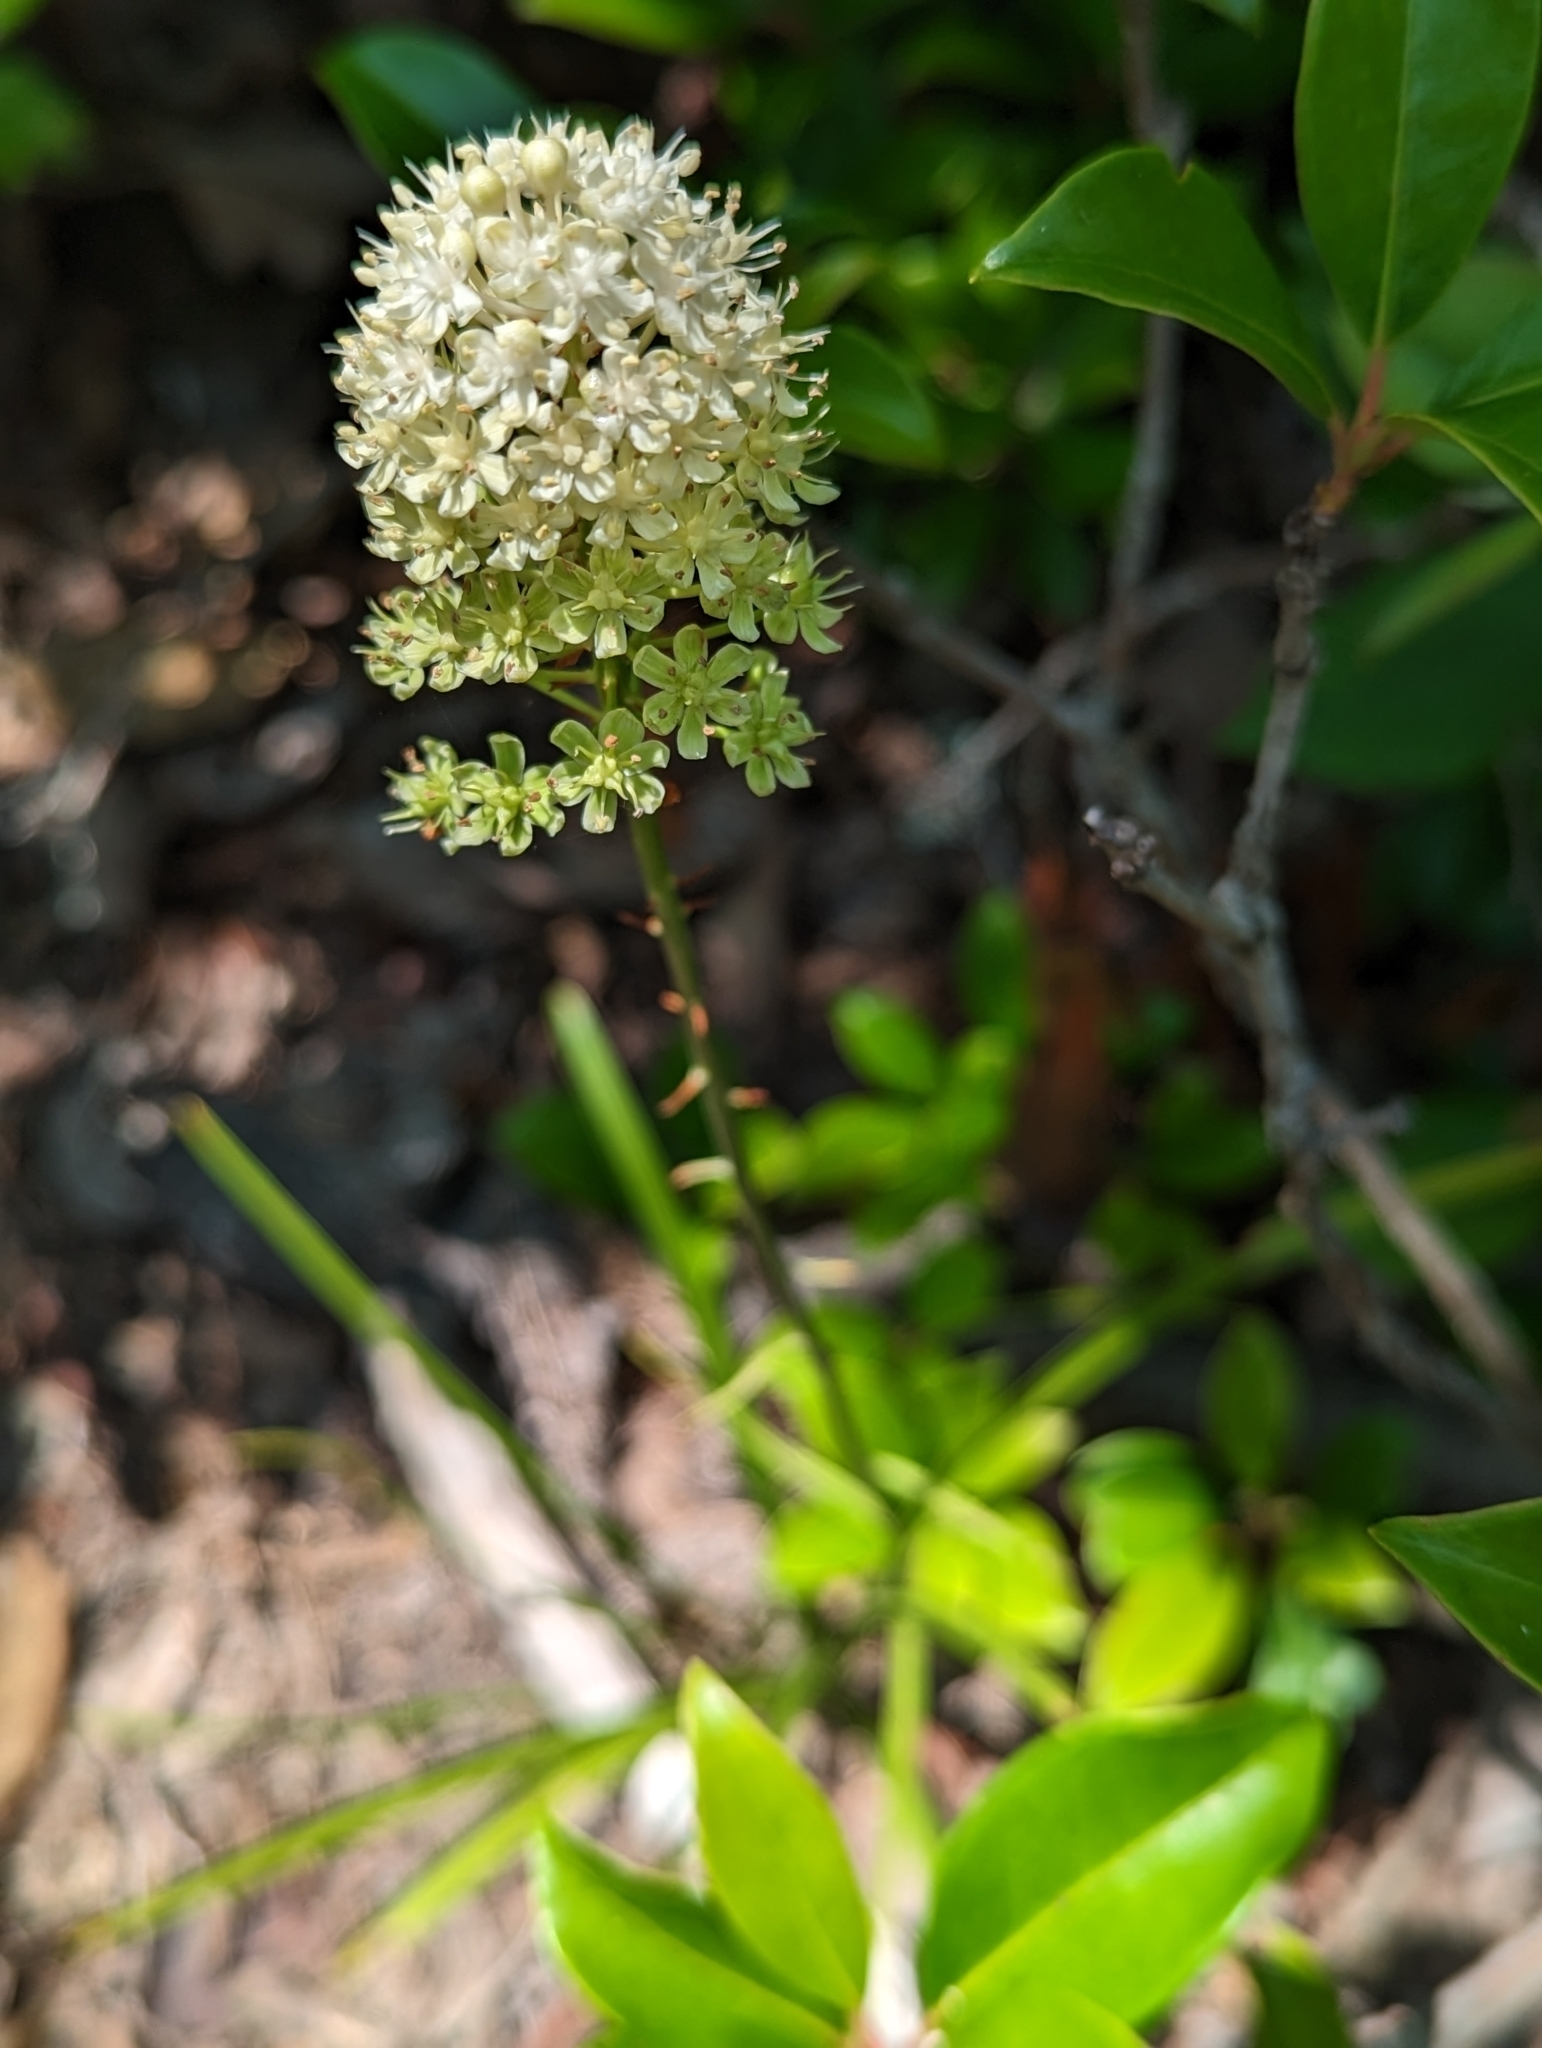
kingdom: Plantae
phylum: Tracheophyta
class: Liliopsida
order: Liliales
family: Melanthiaceae
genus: Amianthium
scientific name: Amianthium muscitoxicum
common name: Fly-poison
